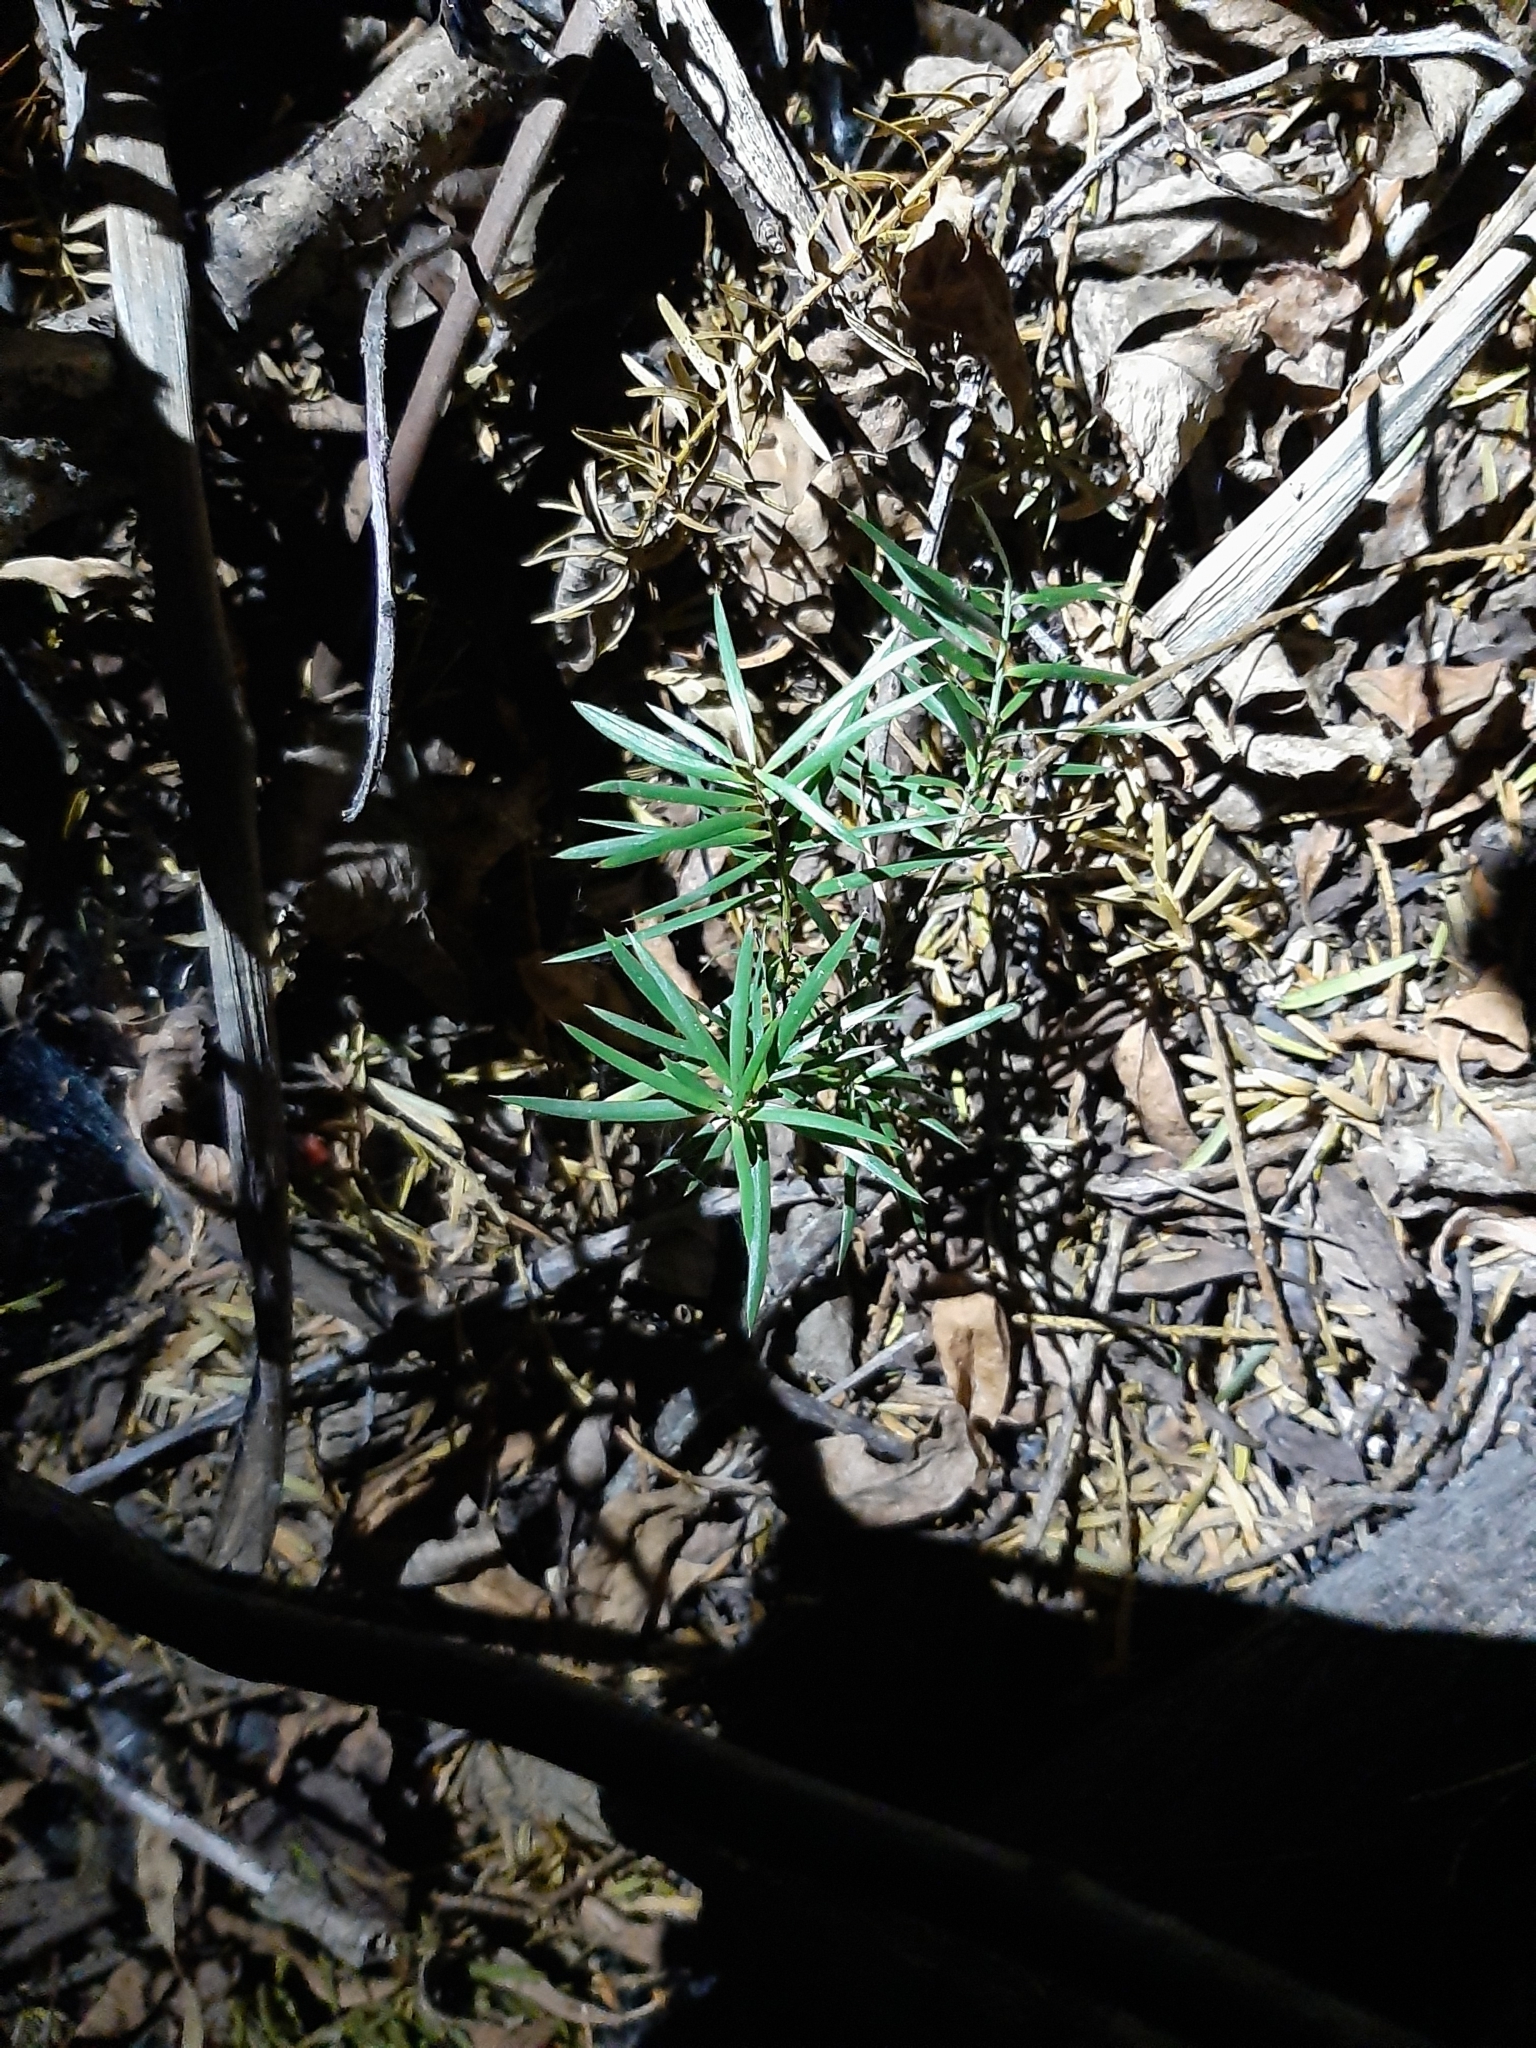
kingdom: Plantae
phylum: Tracheophyta
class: Pinopsida
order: Pinales
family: Podocarpaceae
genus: Podocarpus
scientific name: Podocarpus totara
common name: Totara
